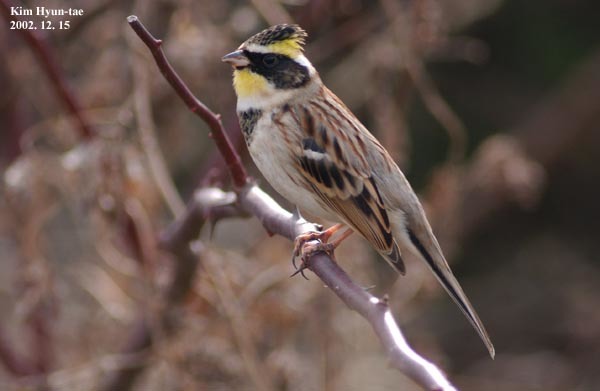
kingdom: Animalia
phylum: Chordata
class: Aves
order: Passeriformes
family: Emberizidae
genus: Emberiza
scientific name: Emberiza elegans
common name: Yellow-throated bunting
